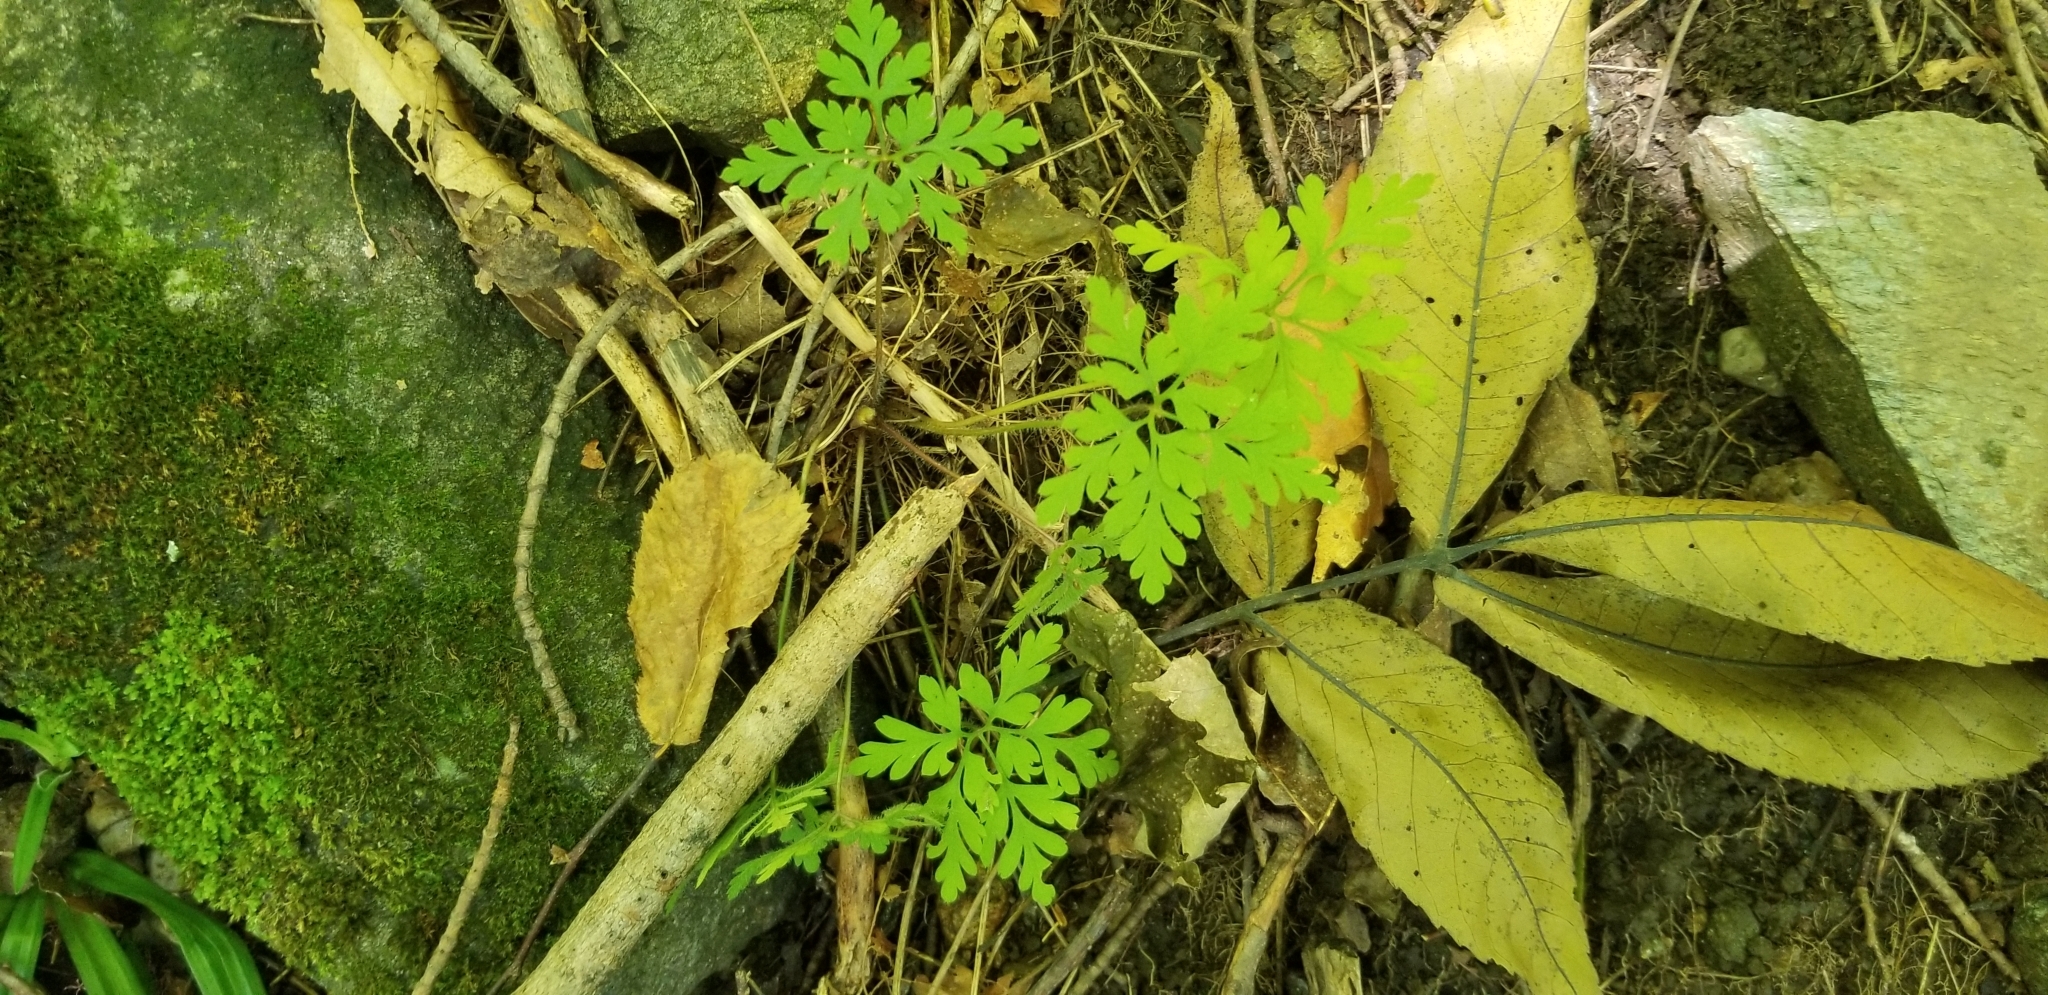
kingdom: Plantae
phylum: Tracheophyta
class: Magnoliopsida
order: Geraniales
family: Geraniaceae
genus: Geranium
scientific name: Geranium robertianum
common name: Herb-robert
